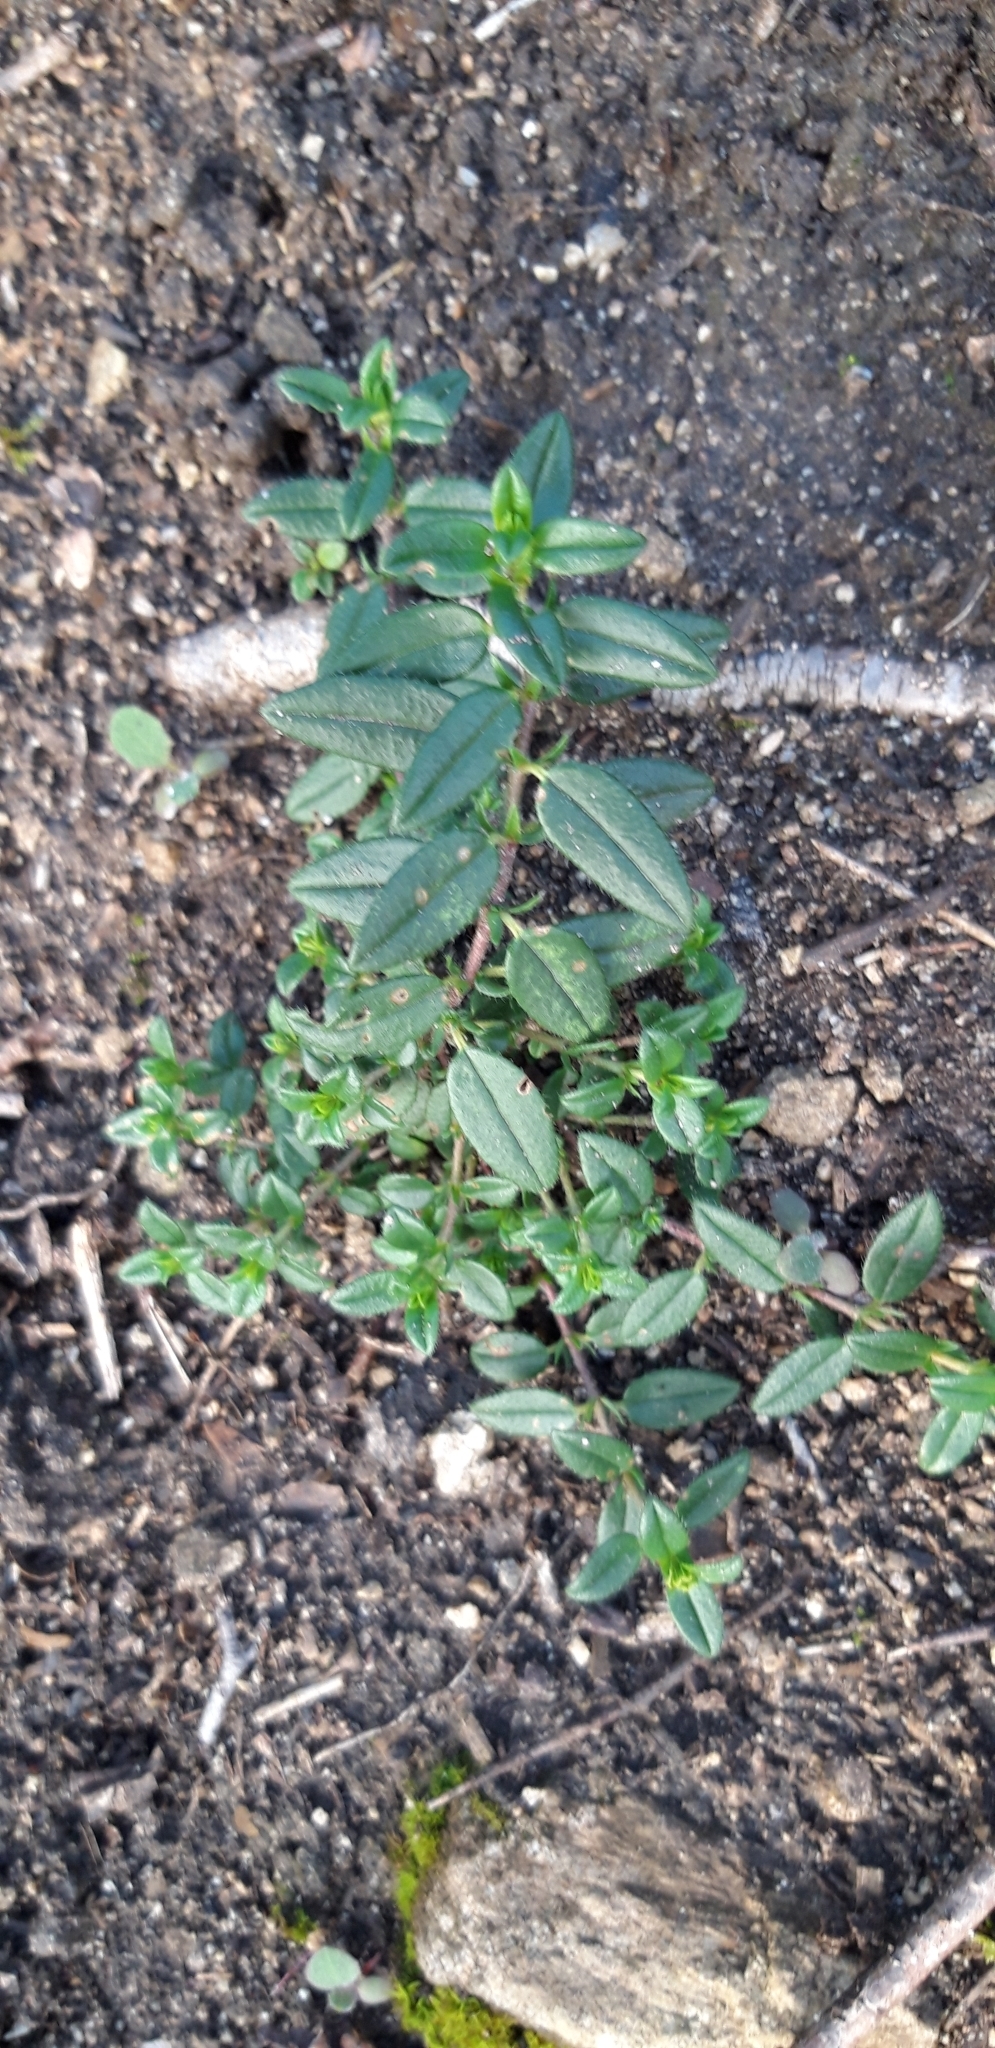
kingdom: Plantae
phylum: Tracheophyta
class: Magnoliopsida
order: Malvales
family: Cistaceae
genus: Helianthemum
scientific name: Helianthemum nummularium
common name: Common rock-rose
